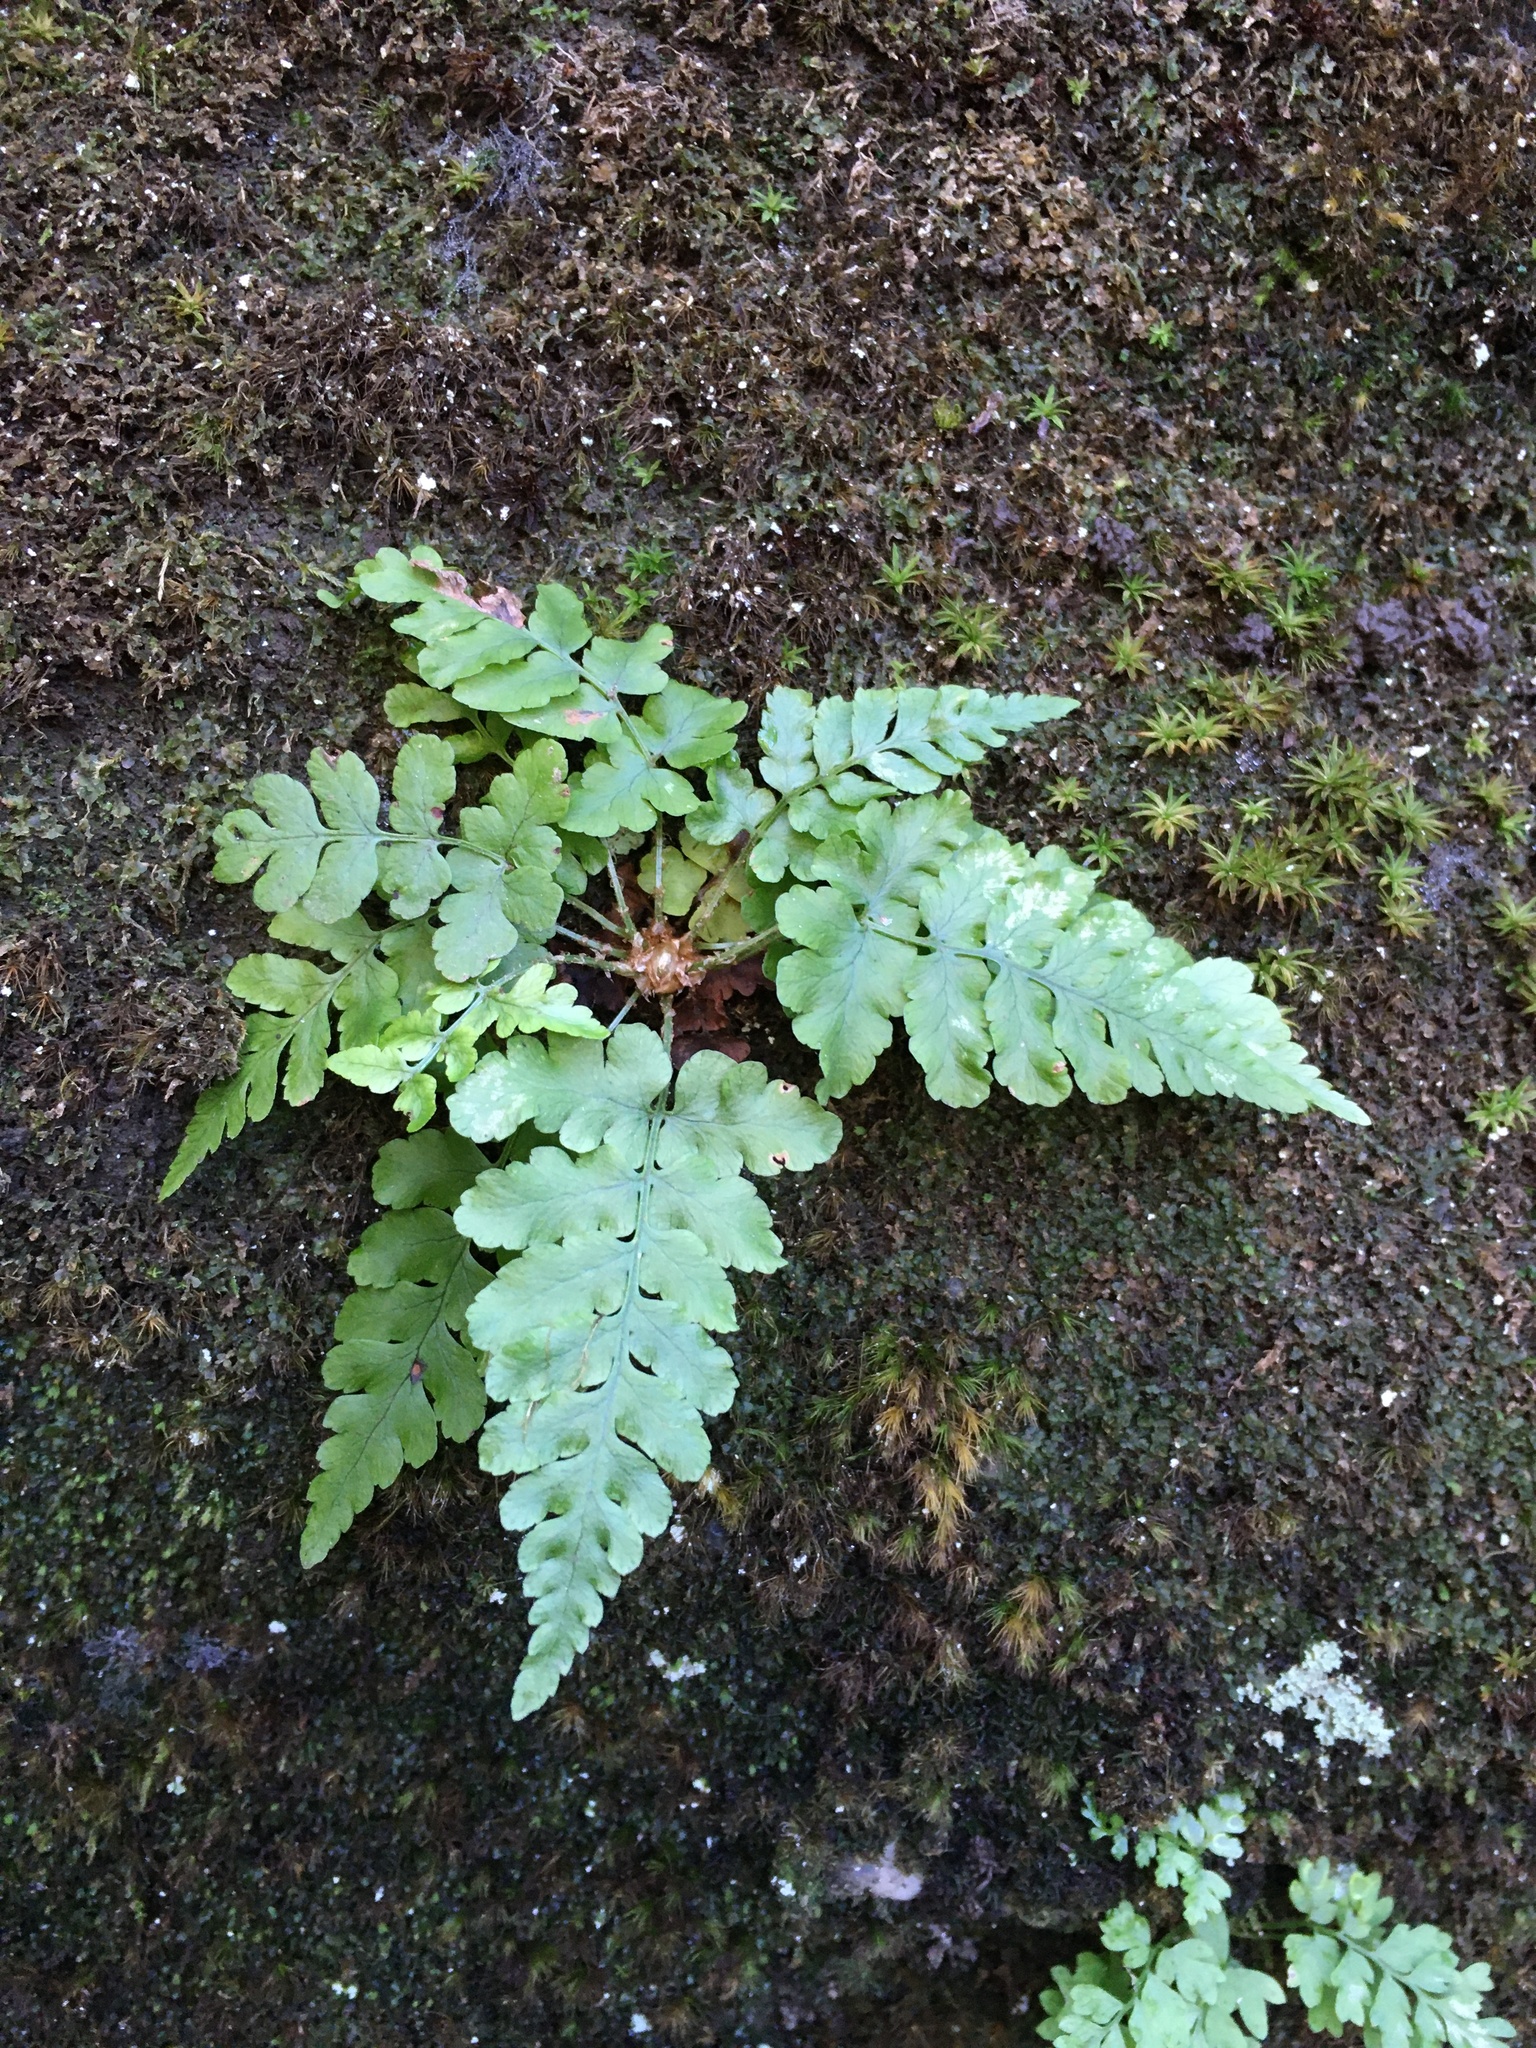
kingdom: Plantae
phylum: Tracheophyta
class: Polypodiopsida
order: Polypodiales
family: Dryopteridaceae
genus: Dryopteris
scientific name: Dryopteris marginalis
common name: Marginal wood fern
